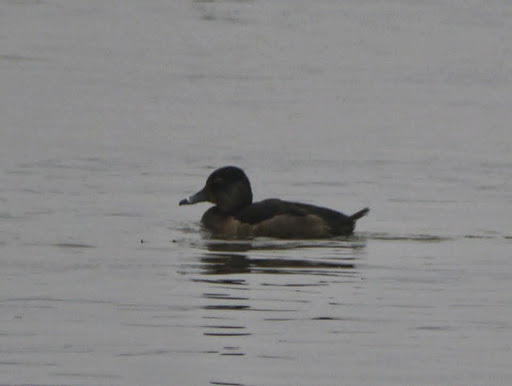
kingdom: Animalia
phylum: Chordata
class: Aves
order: Anseriformes
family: Anatidae
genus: Aythya
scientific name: Aythya collaris
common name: Ring-necked duck
